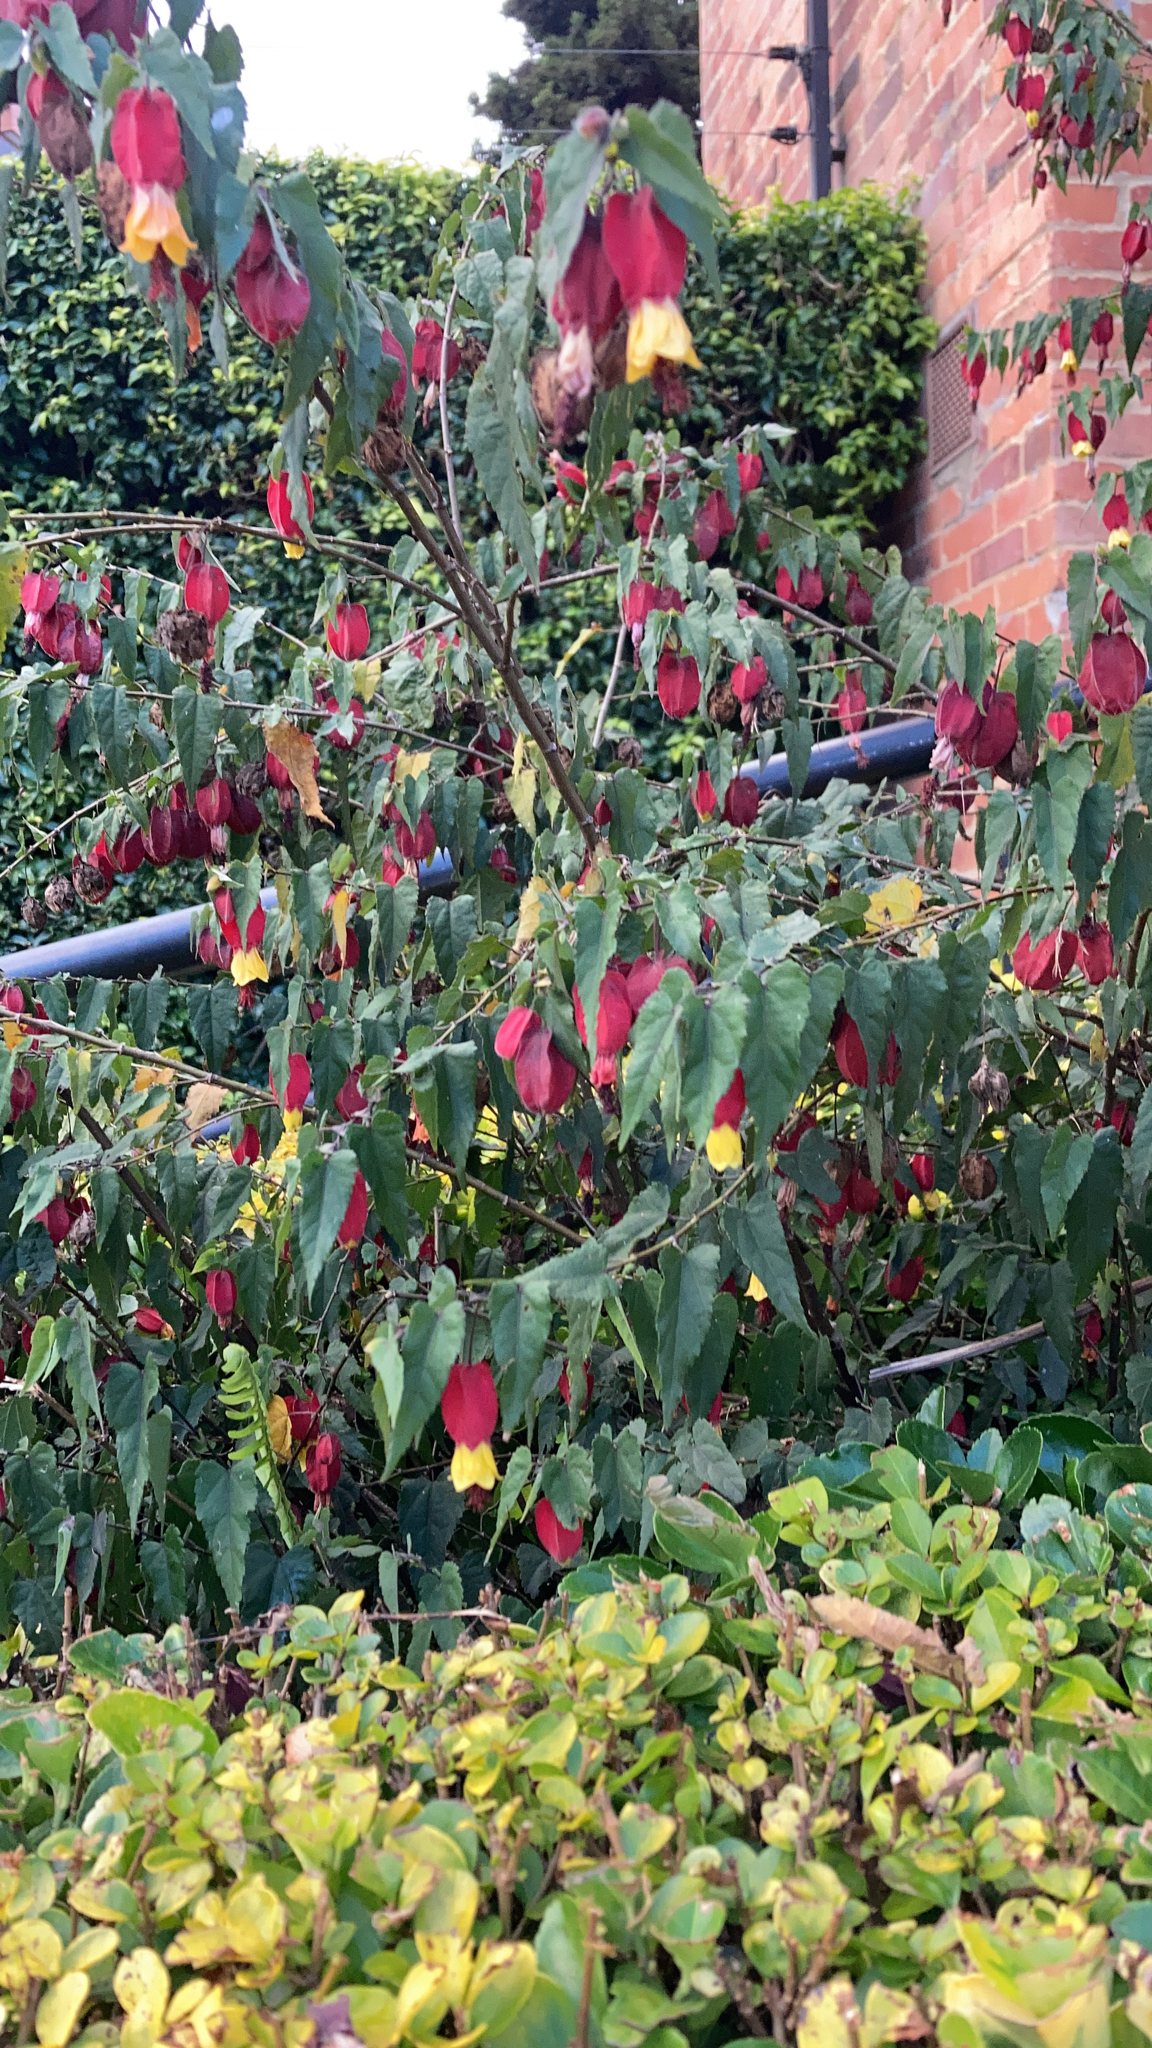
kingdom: Plantae
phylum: Tracheophyta
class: Magnoliopsida
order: Malvales
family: Malvaceae
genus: Callianthe
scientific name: Callianthe megapotamica
